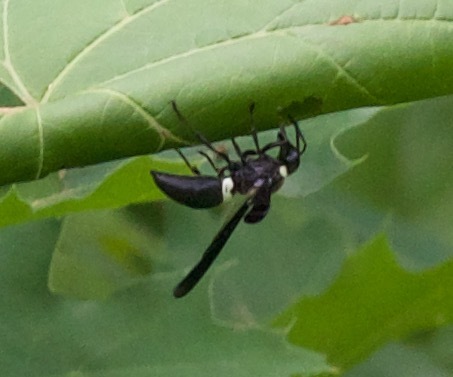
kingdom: Animalia
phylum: Arthropoda
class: Insecta
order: Hymenoptera
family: Eumenidae
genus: Monobia
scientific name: Monobia quadridens
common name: Four-toothed mason wasp
